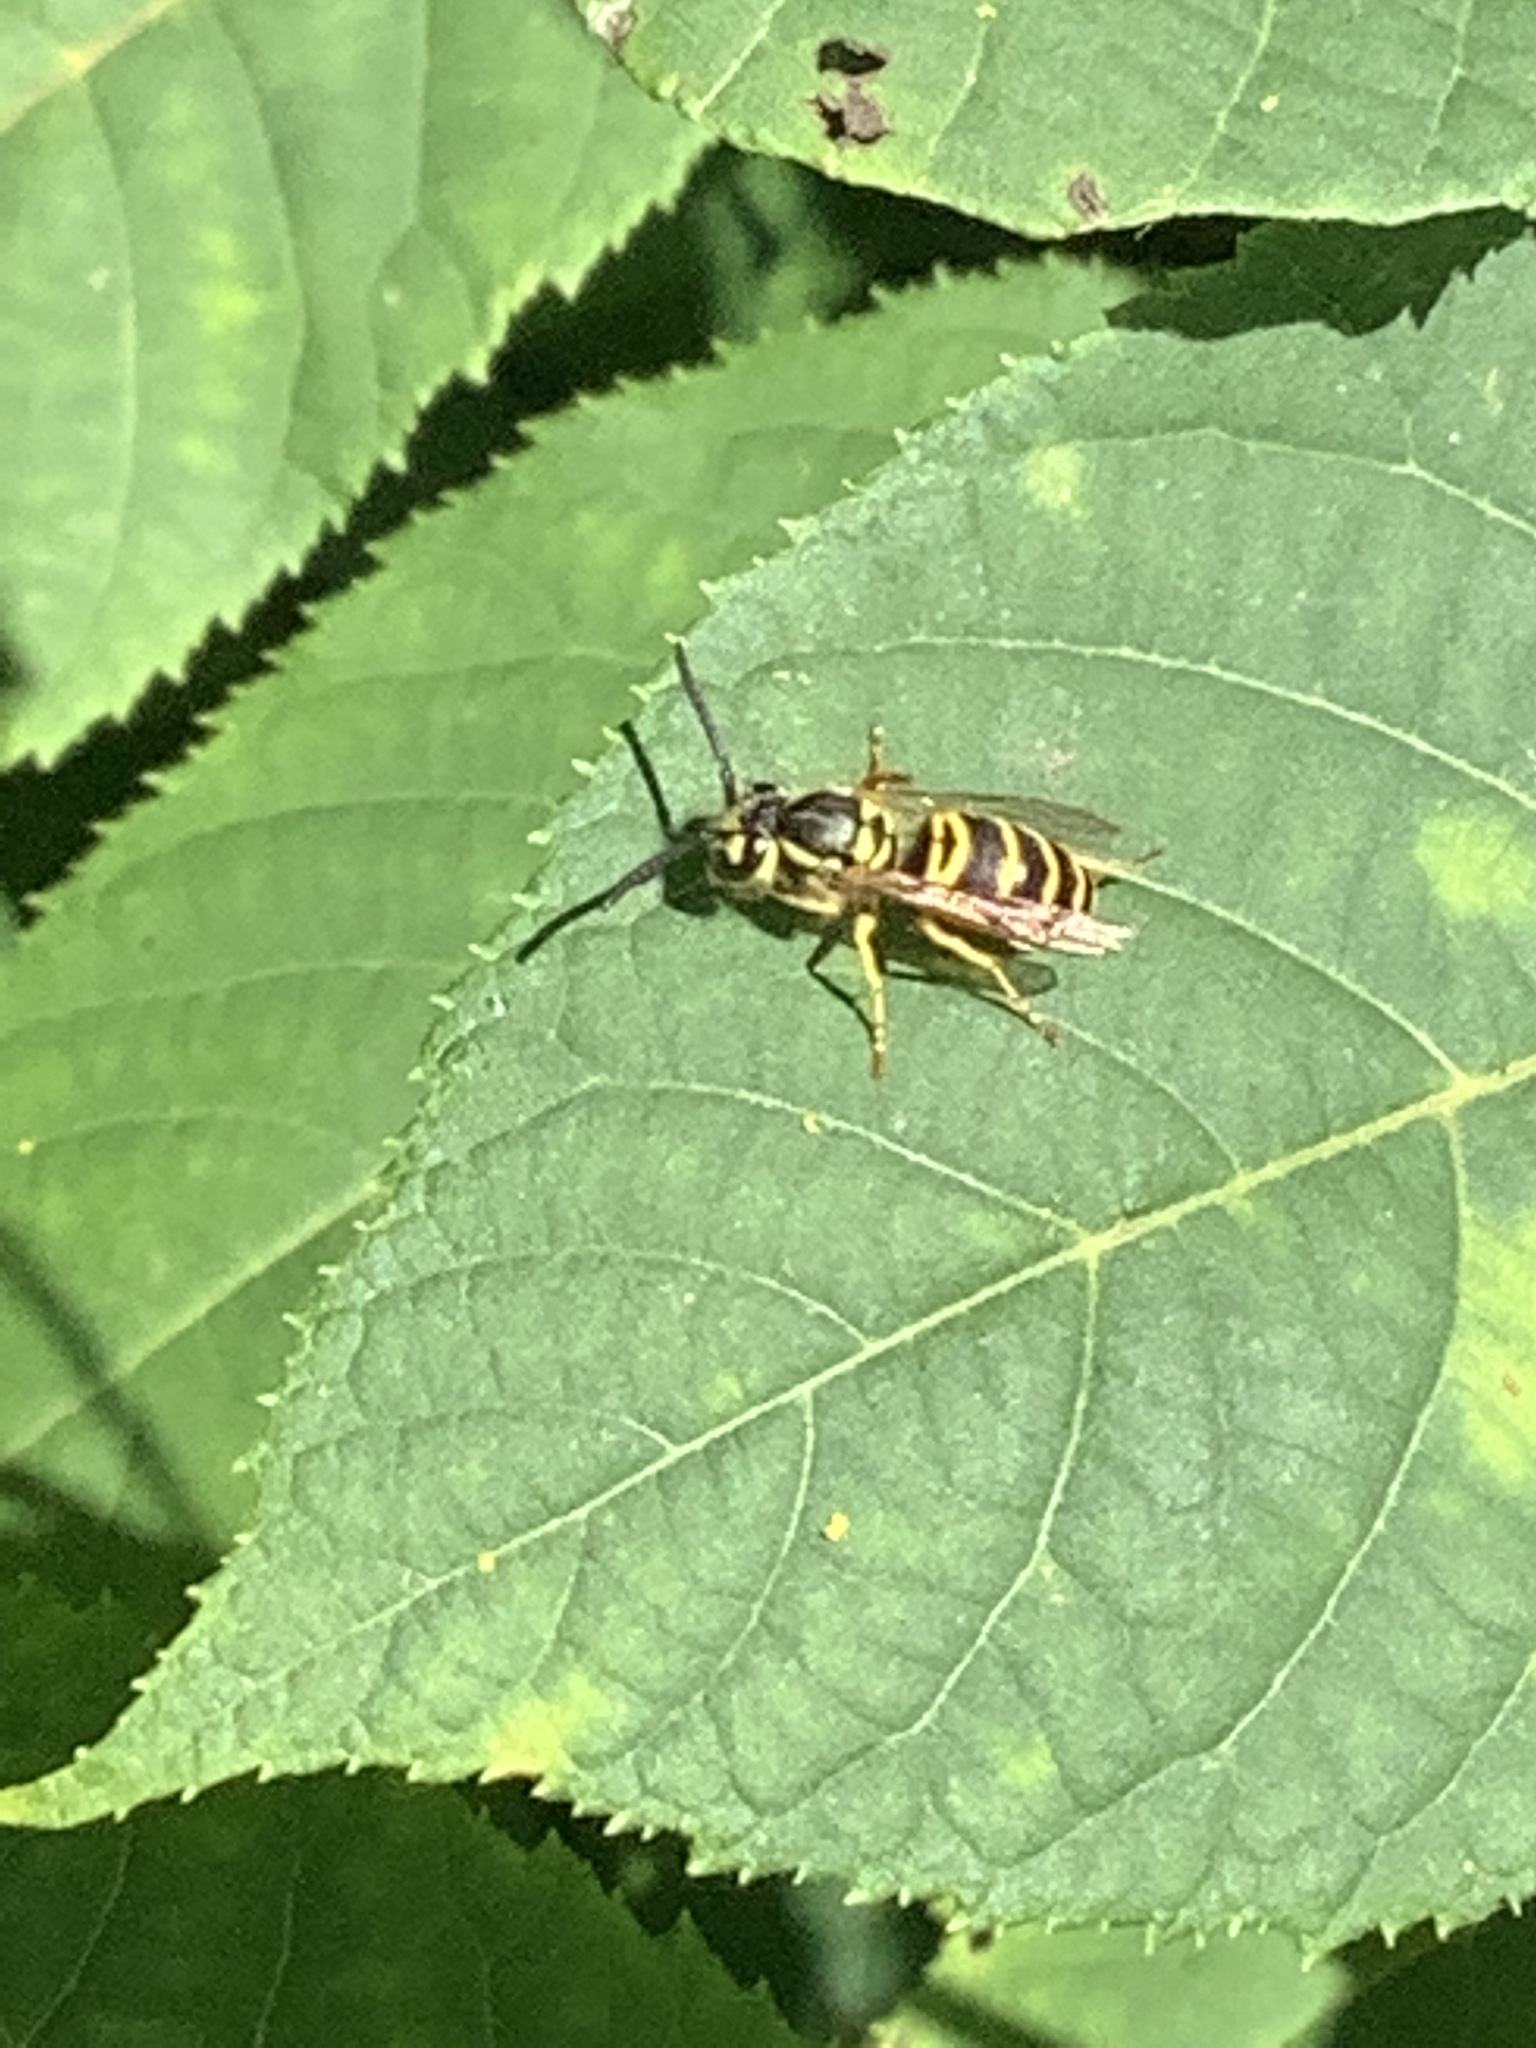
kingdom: Animalia
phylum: Arthropoda
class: Insecta
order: Hymenoptera
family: Vespidae
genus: Vespula
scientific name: Vespula maculifrons
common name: Eastern yellowjacket
